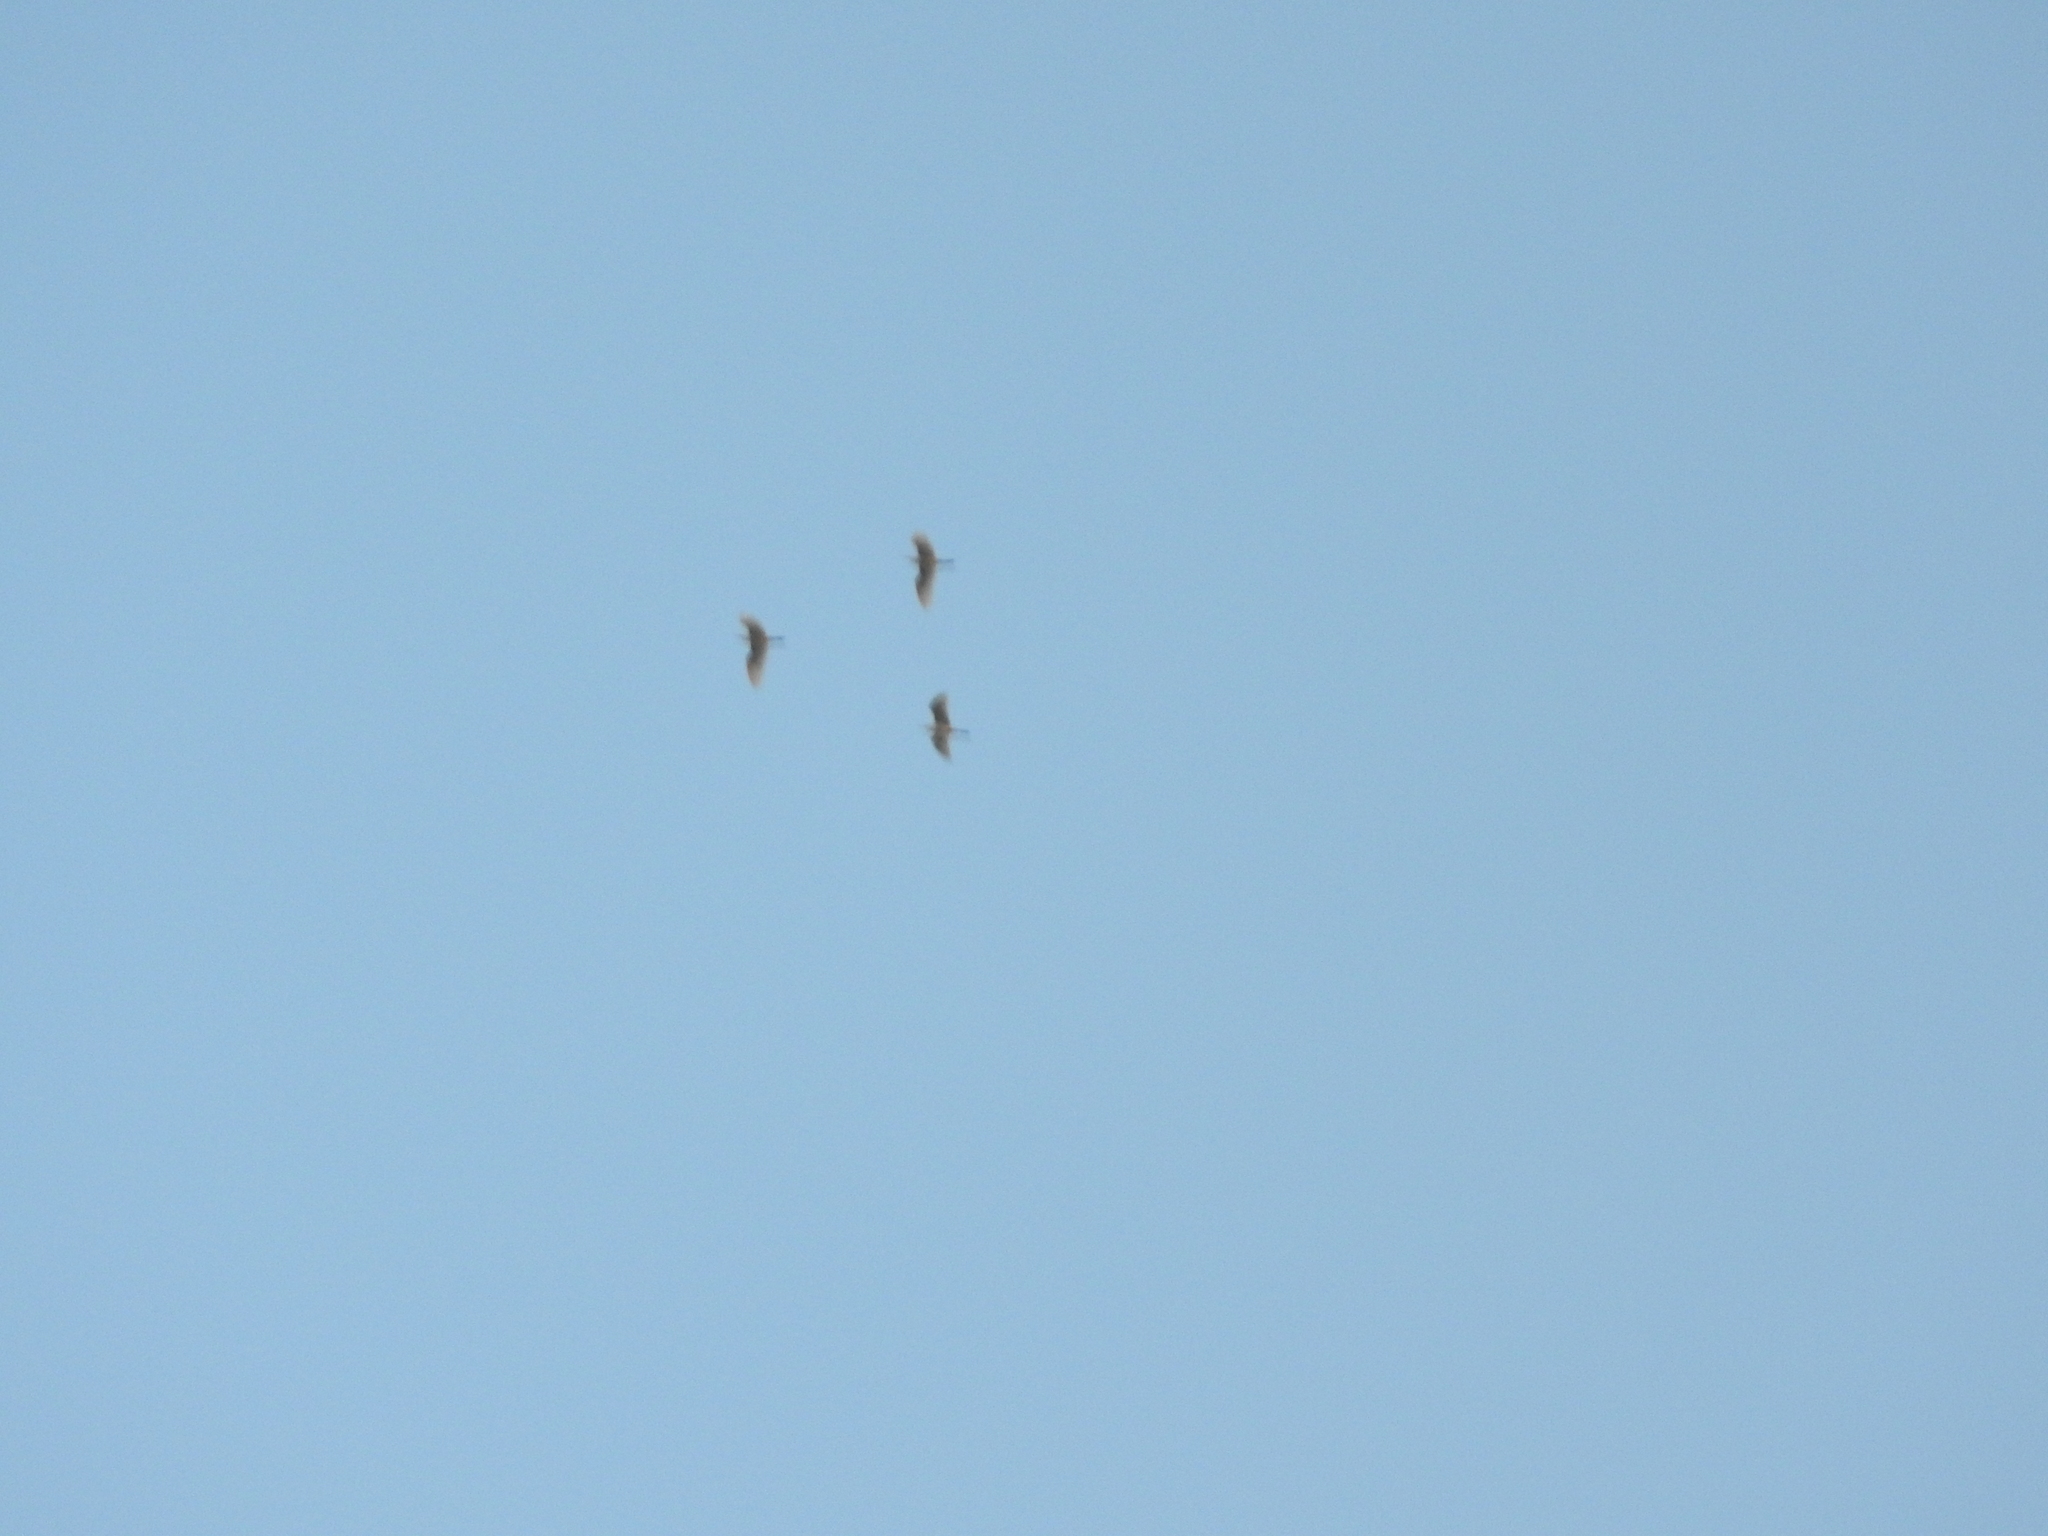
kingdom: Animalia
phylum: Chordata
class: Aves
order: Pelecaniformes
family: Ardeidae
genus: Bubulcus
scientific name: Bubulcus ibis
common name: Cattle egret
